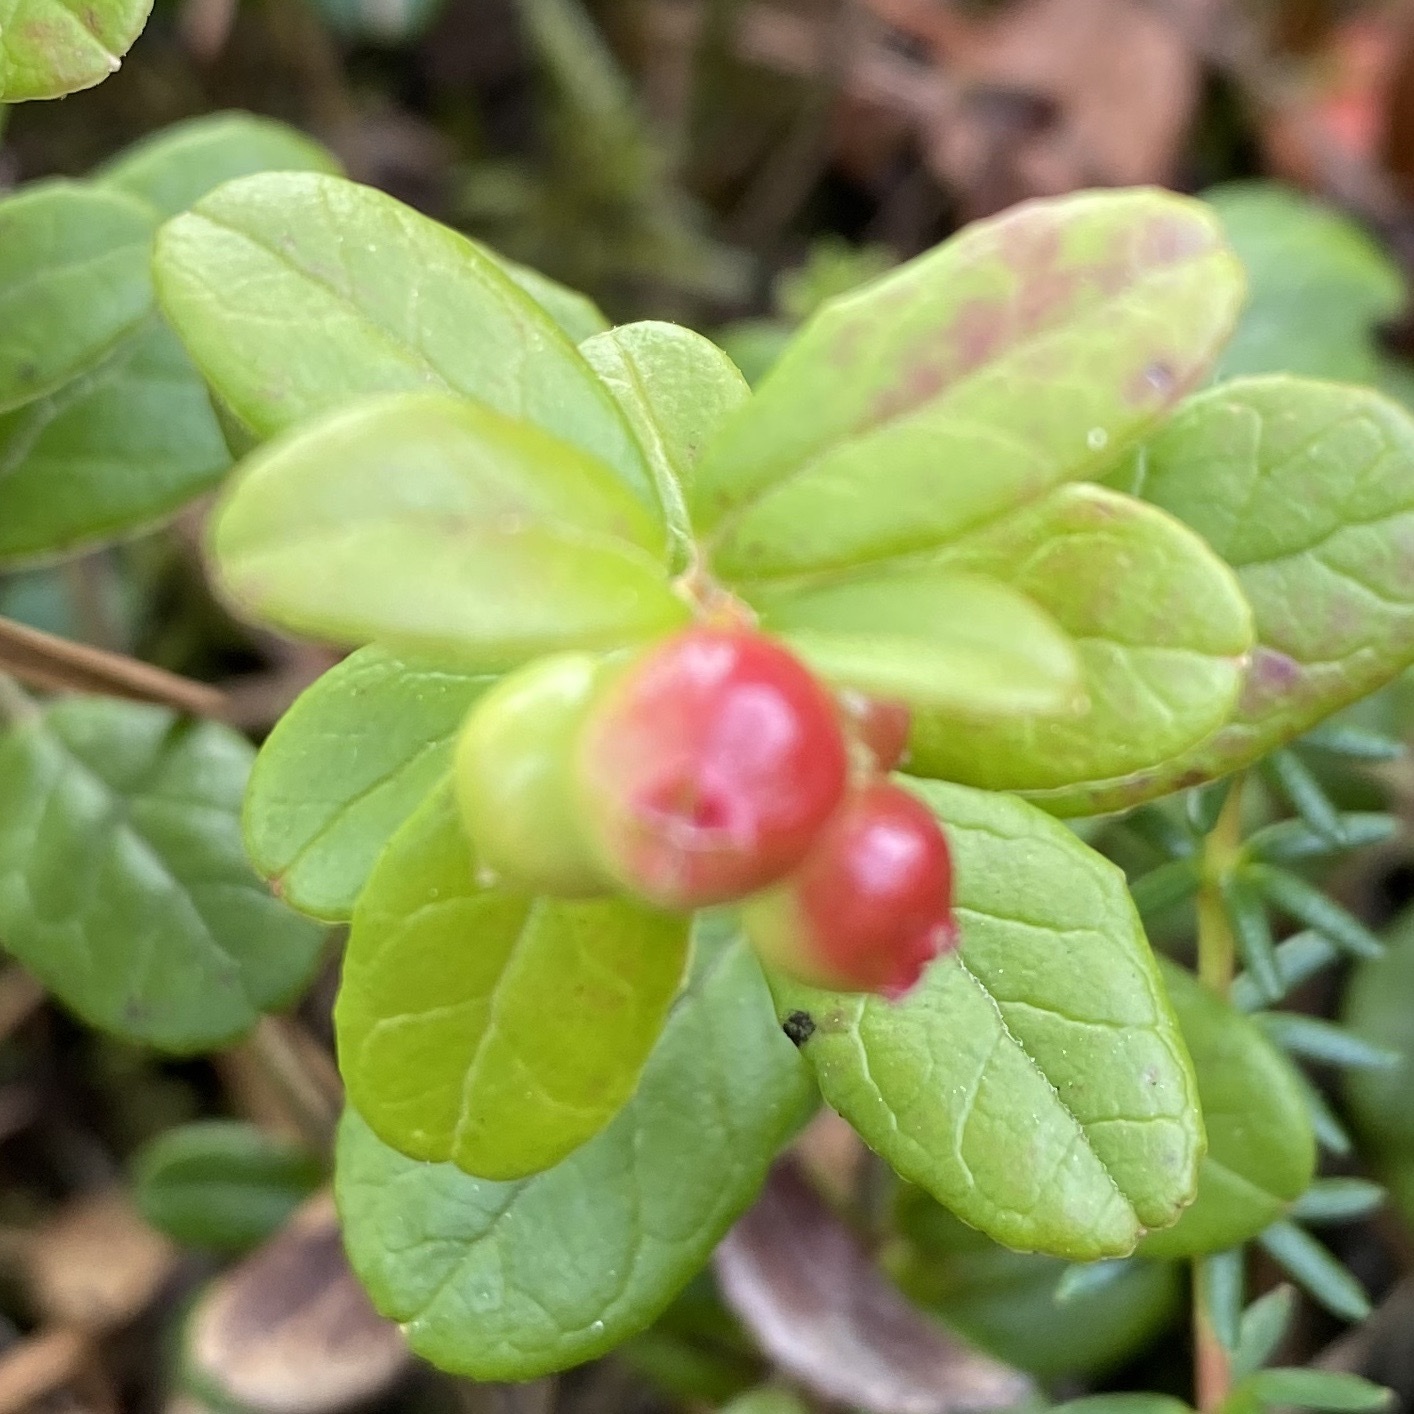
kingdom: Plantae
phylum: Tracheophyta
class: Magnoliopsida
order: Ericales
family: Ericaceae
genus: Vaccinium
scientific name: Vaccinium vitis-idaea
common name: Cowberry
